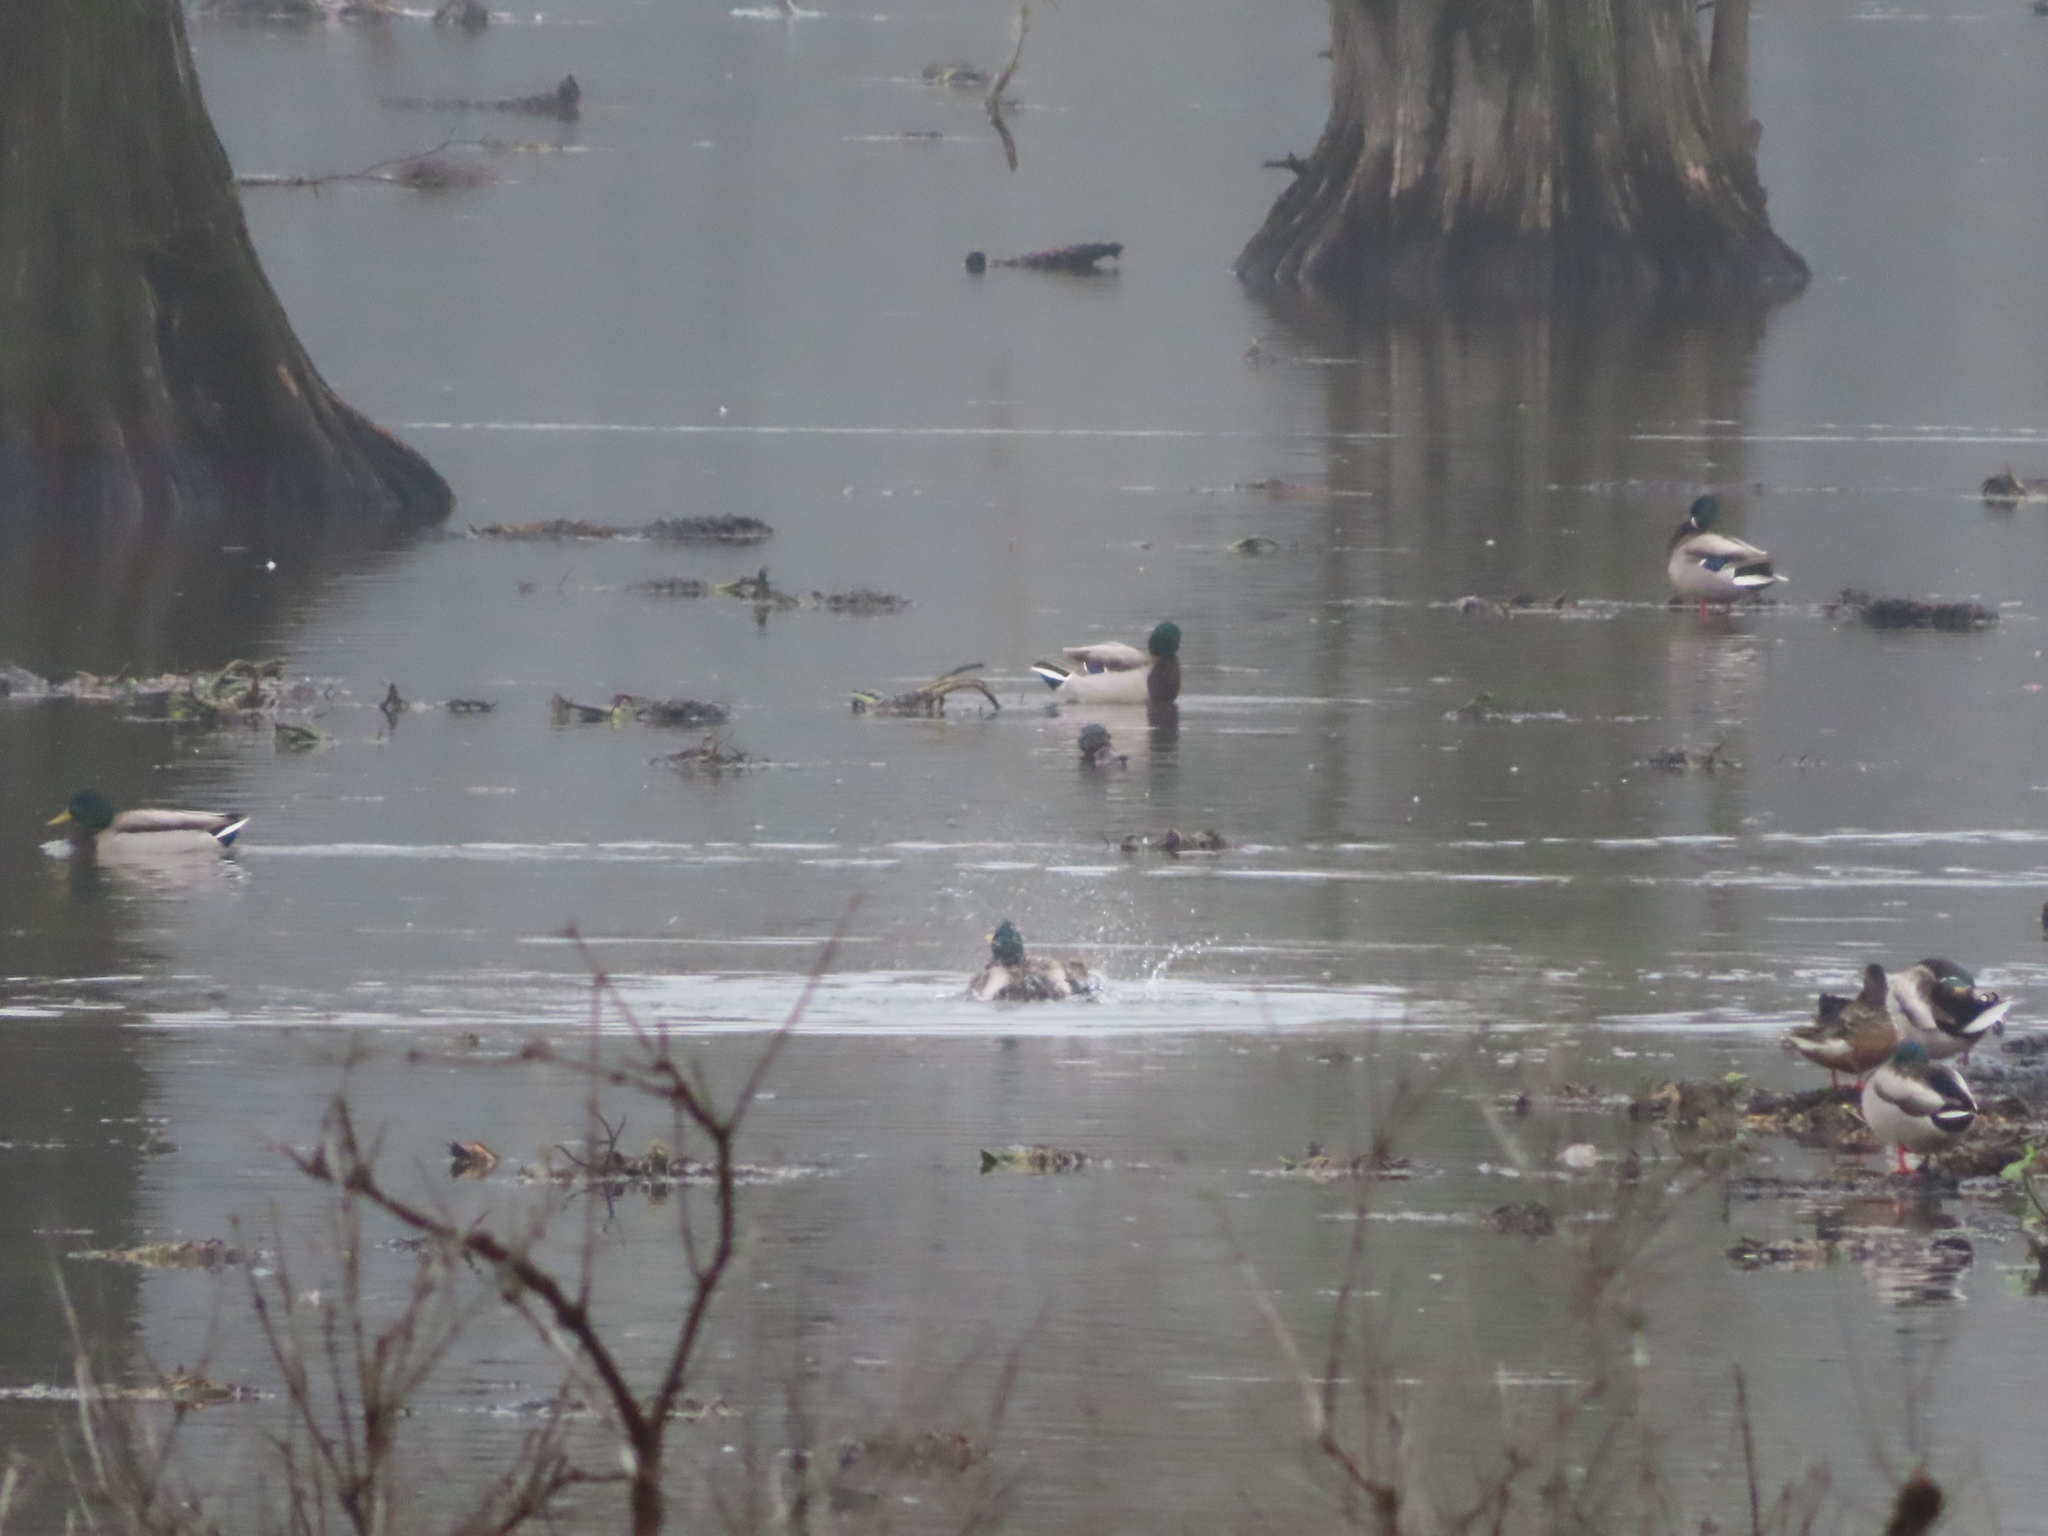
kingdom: Animalia
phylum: Chordata
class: Aves
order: Anseriformes
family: Anatidae
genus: Anas
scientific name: Anas platyrhynchos
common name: Mallard
